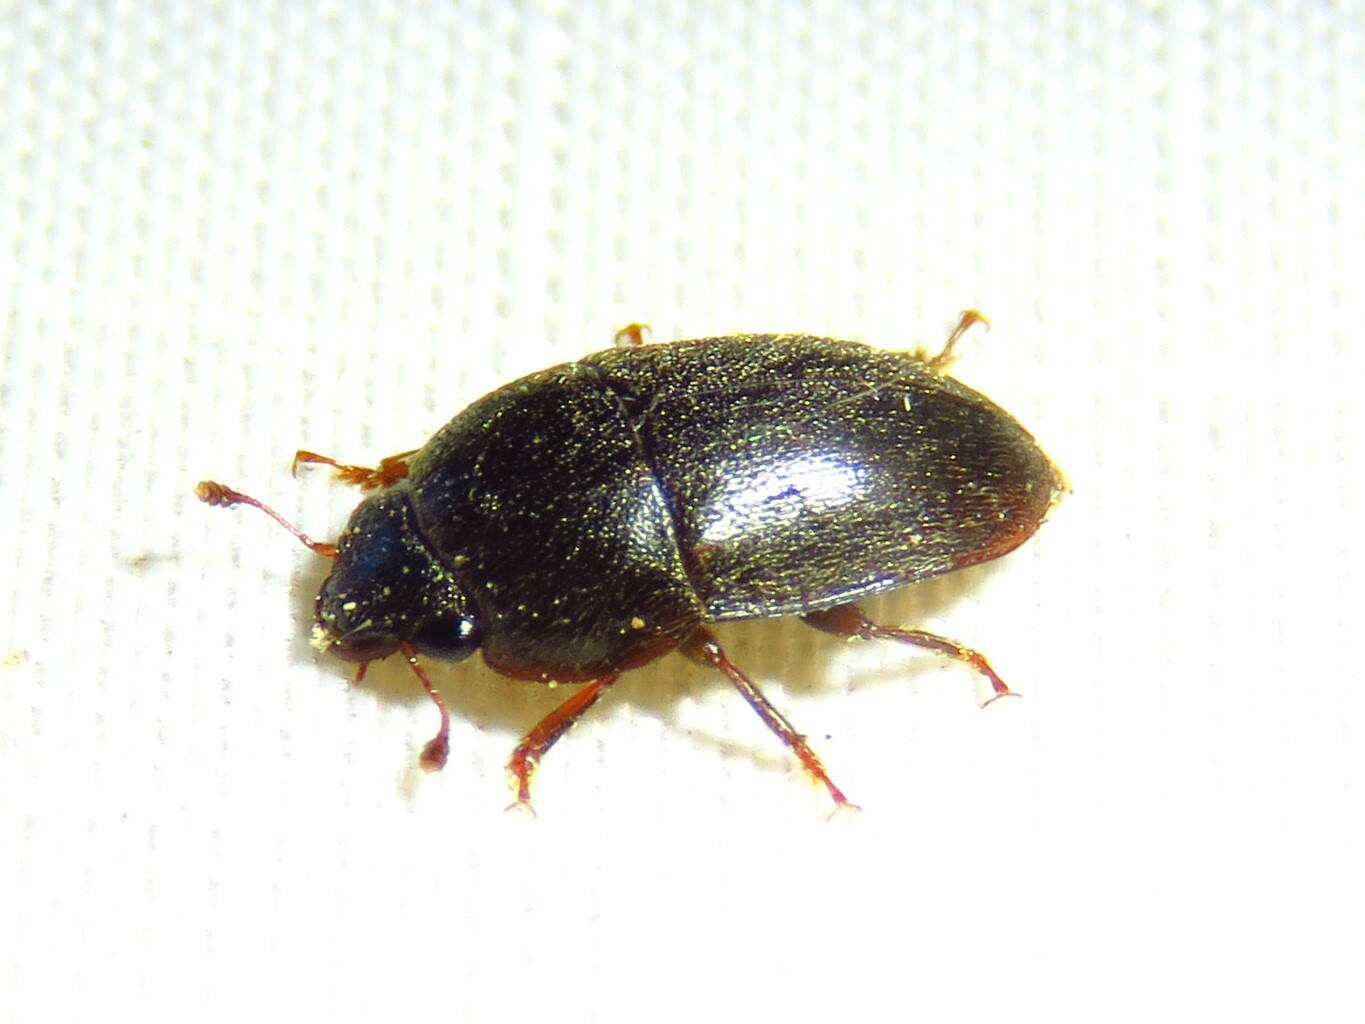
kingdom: Animalia
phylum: Arthropoda
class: Insecta
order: Coleoptera
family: Nitidulidae
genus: Cryptarcha
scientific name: Cryptarcha ampla
